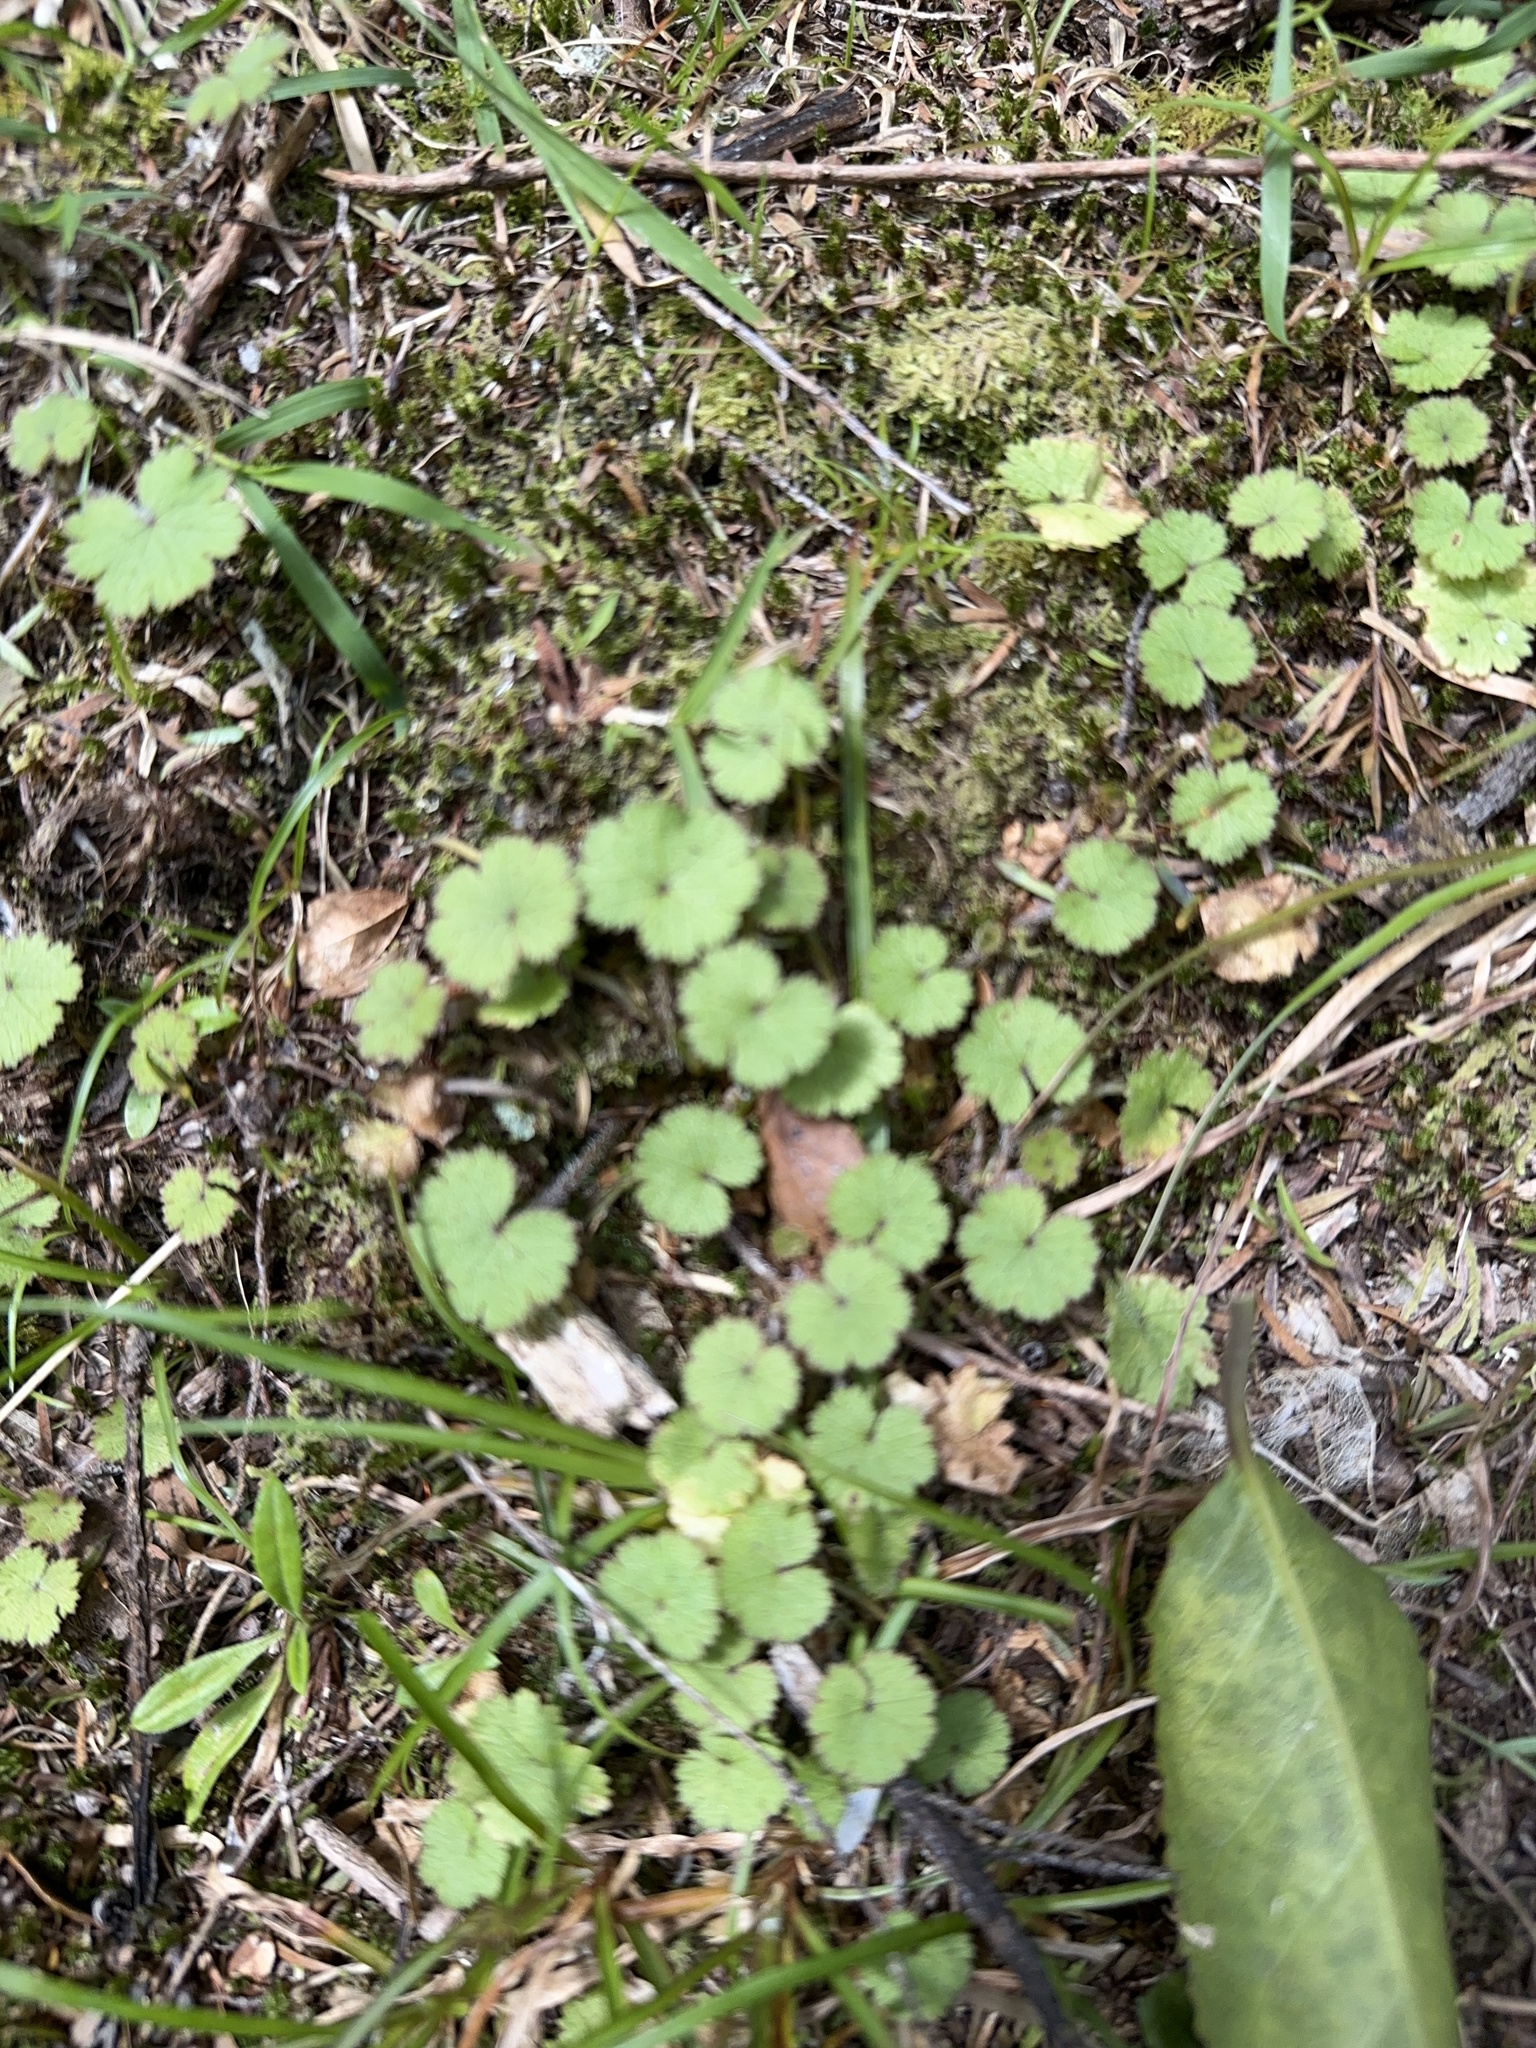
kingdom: Plantae
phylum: Tracheophyta
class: Magnoliopsida
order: Apiales
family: Araliaceae
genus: Hydrocotyle
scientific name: Hydrocotyle moschata
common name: Hairy pennywort
